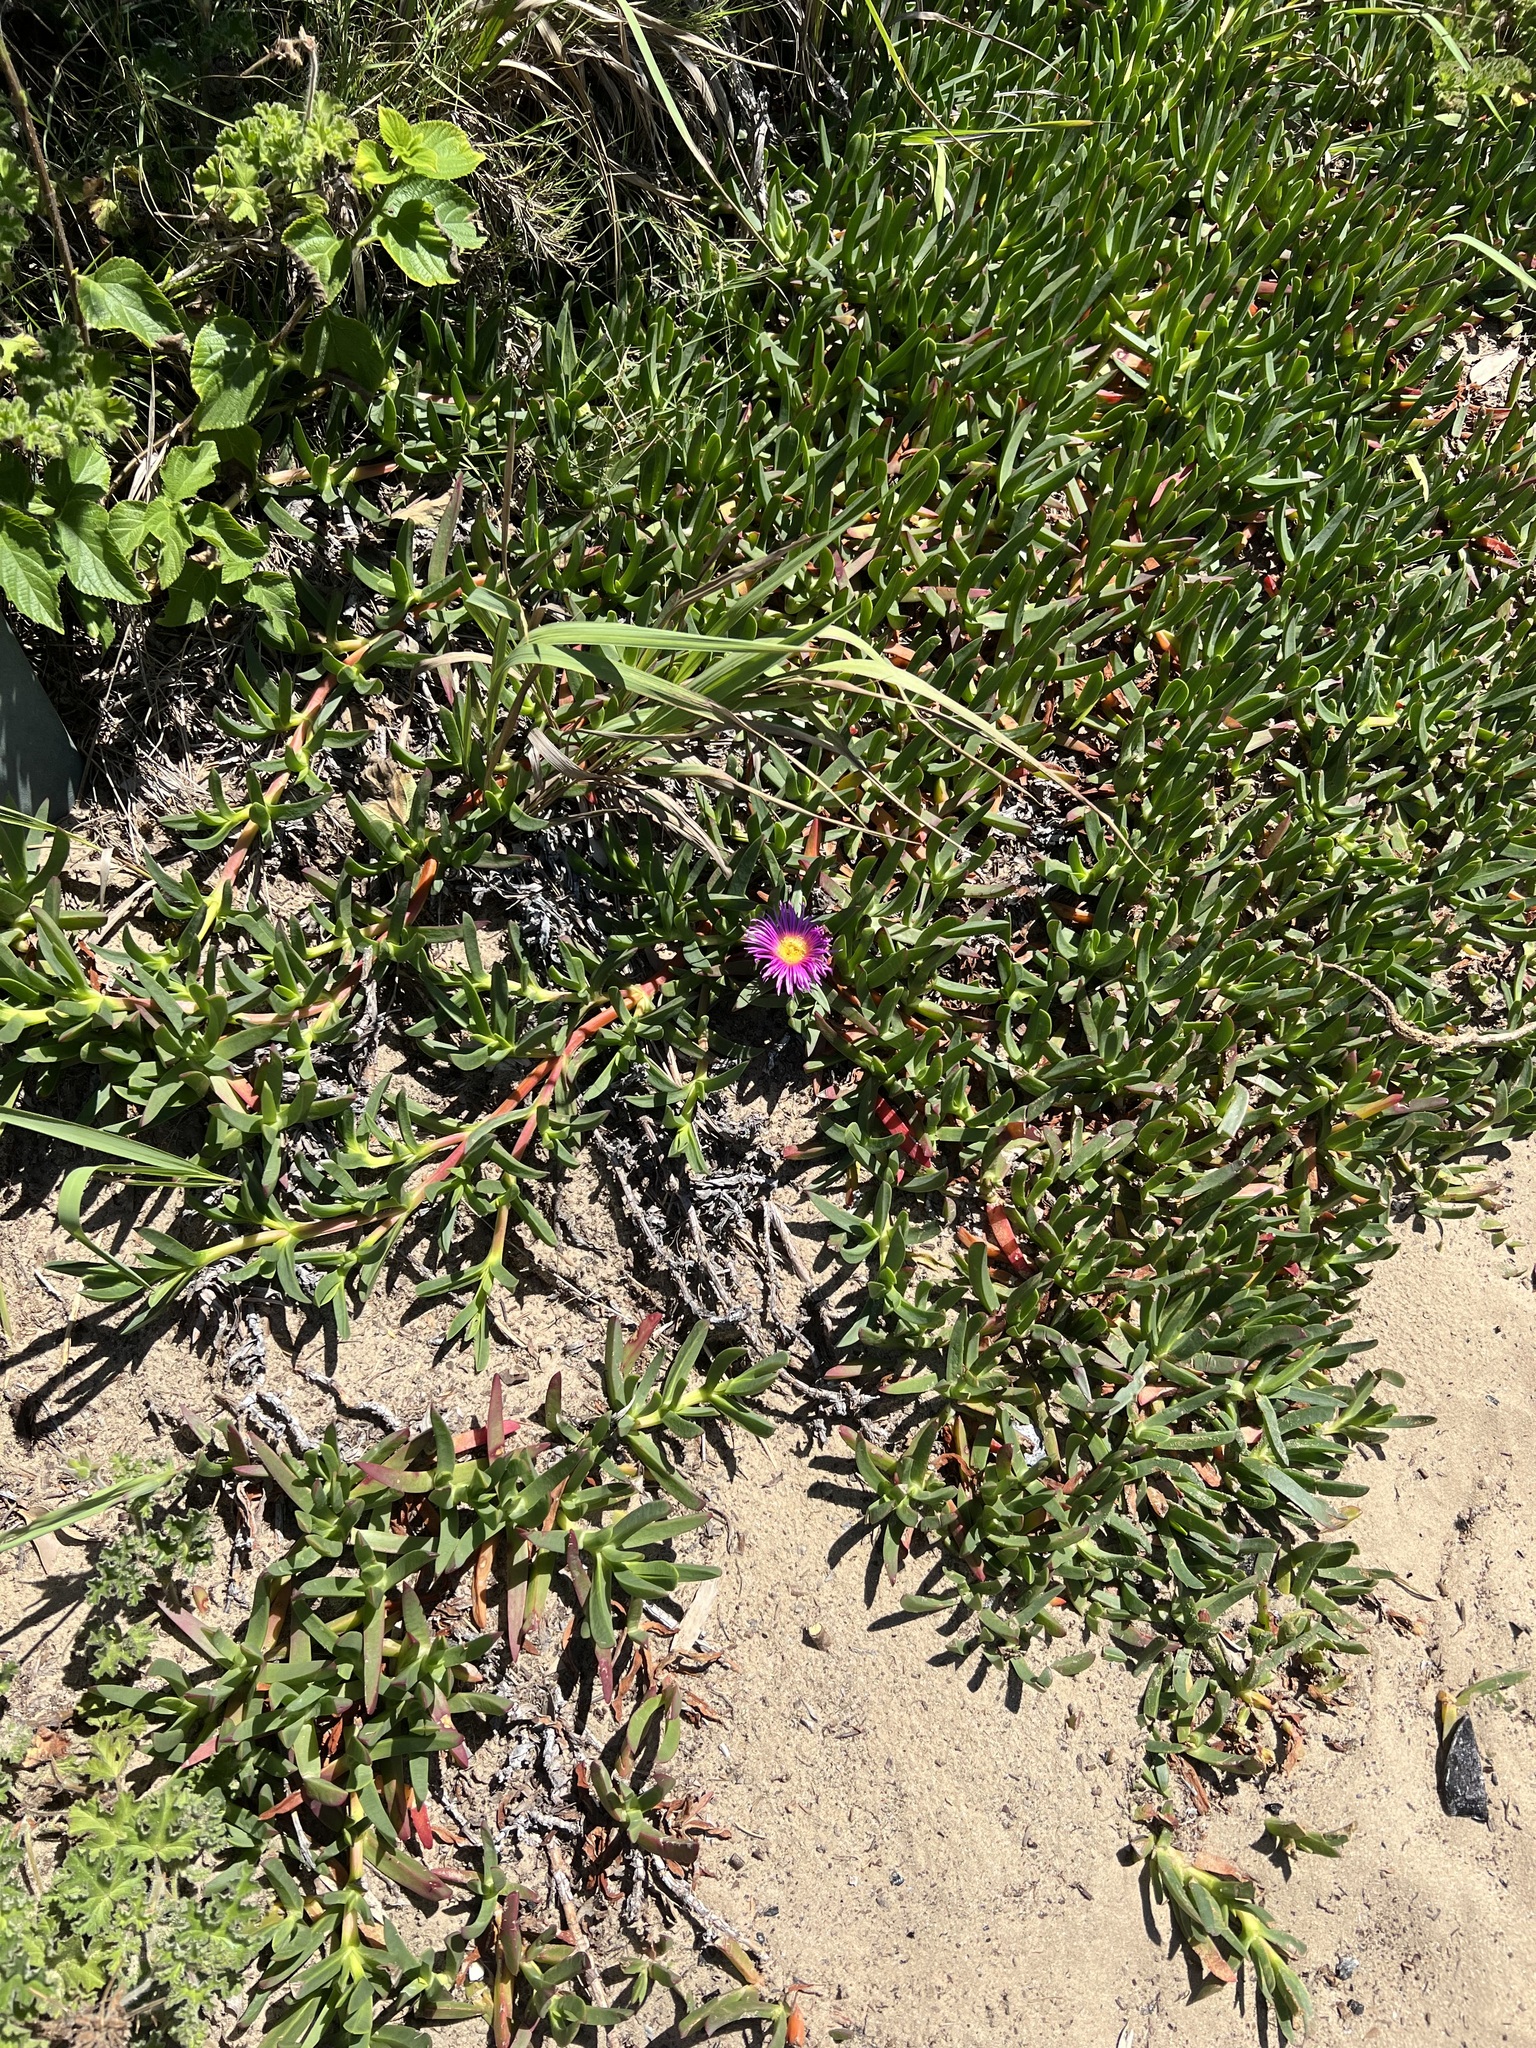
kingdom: Plantae
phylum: Tracheophyta
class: Magnoliopsida
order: Caryophyllales
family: Aizoaceae
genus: Carpobrotus
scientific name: Carpobrotus glaucescens
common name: Angular sea-fig
